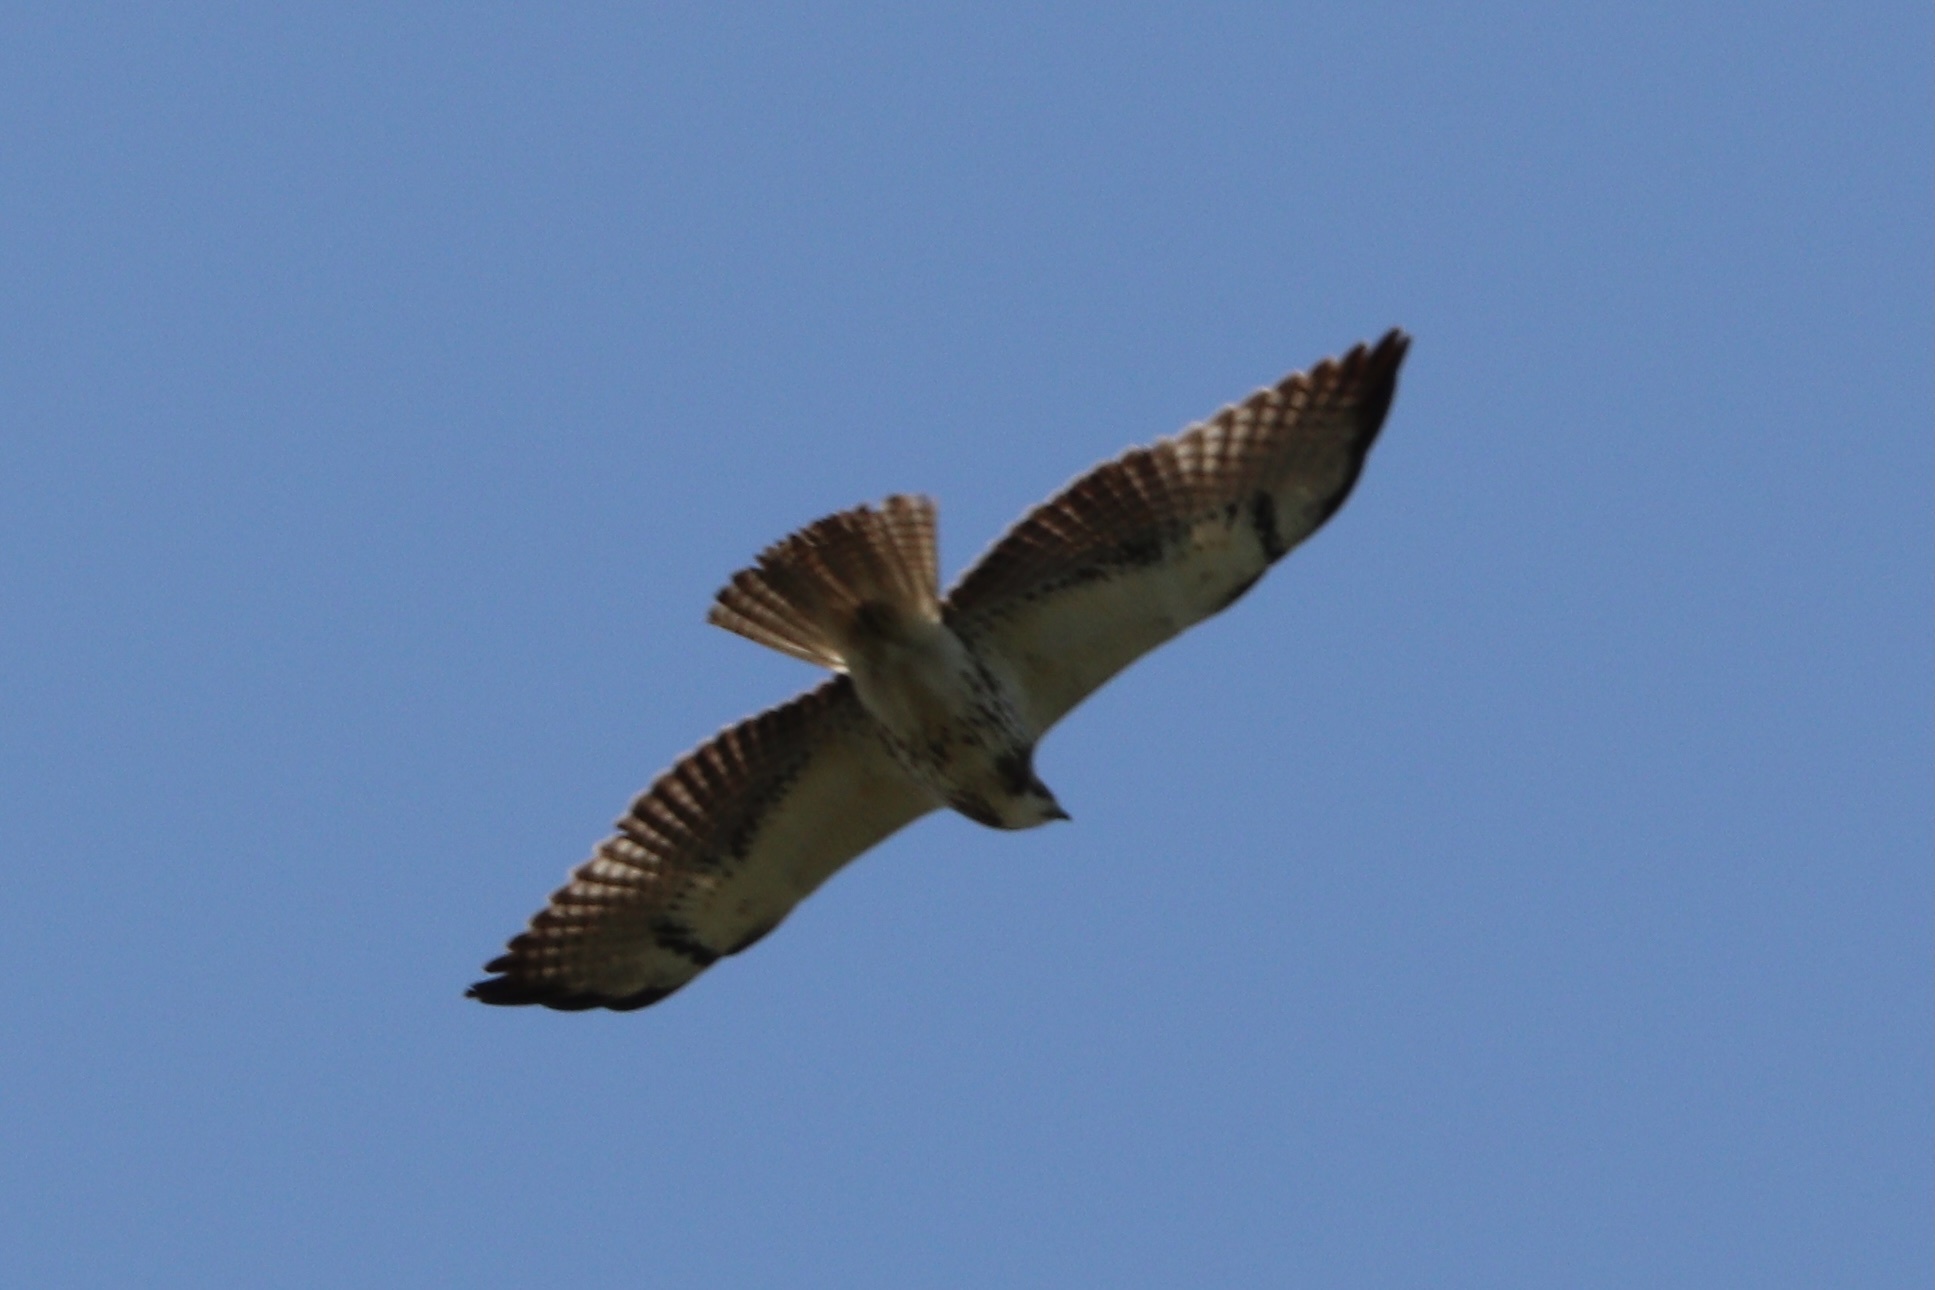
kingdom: Animalia
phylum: Chordata
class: Aves
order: Accipitriformes
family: Accipitridae
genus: Buteo
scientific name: Buteo swainsoni
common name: Swainson's hawk
